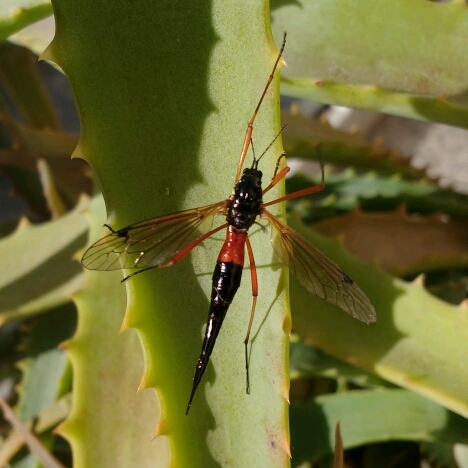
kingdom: Animalia
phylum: Arthropoda
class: Insecta
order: Diptera
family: Tipulidae
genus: Tanyptera
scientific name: Tanyptera atrata
